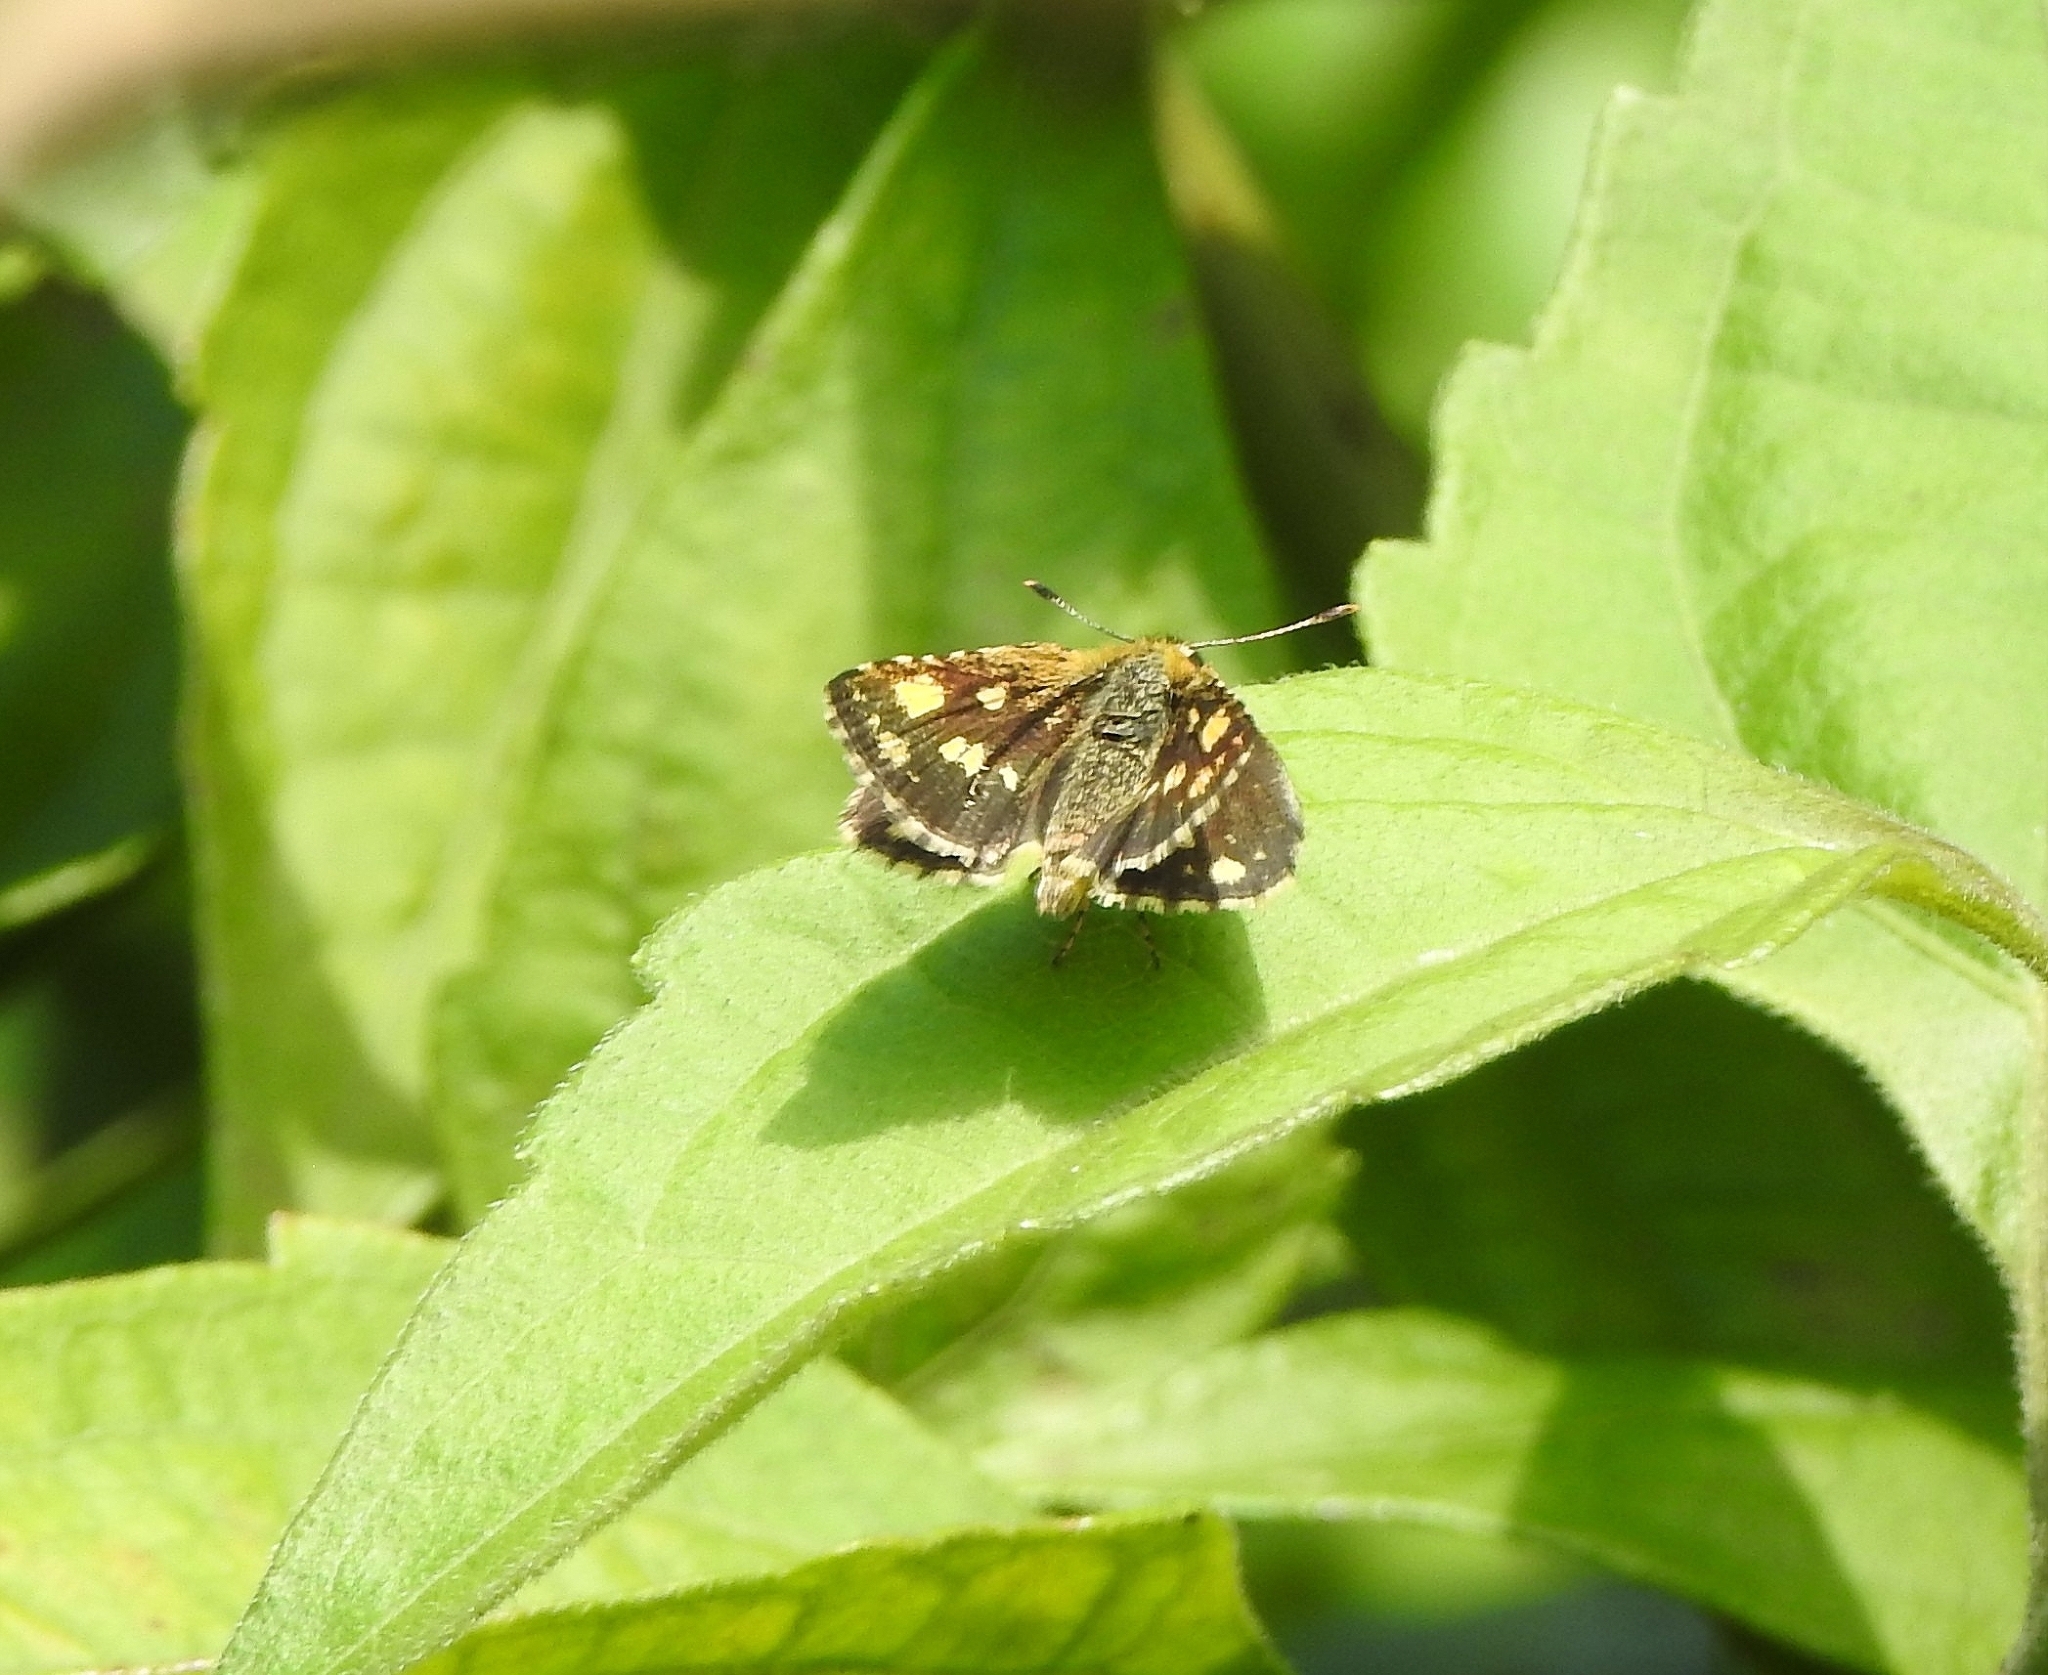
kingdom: Animalia
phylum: Arthropoda
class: Insecta
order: Lepidoptera
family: Hesperiidae
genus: Ampittia
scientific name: Ampittia dioscorides
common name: Common bush hopper
